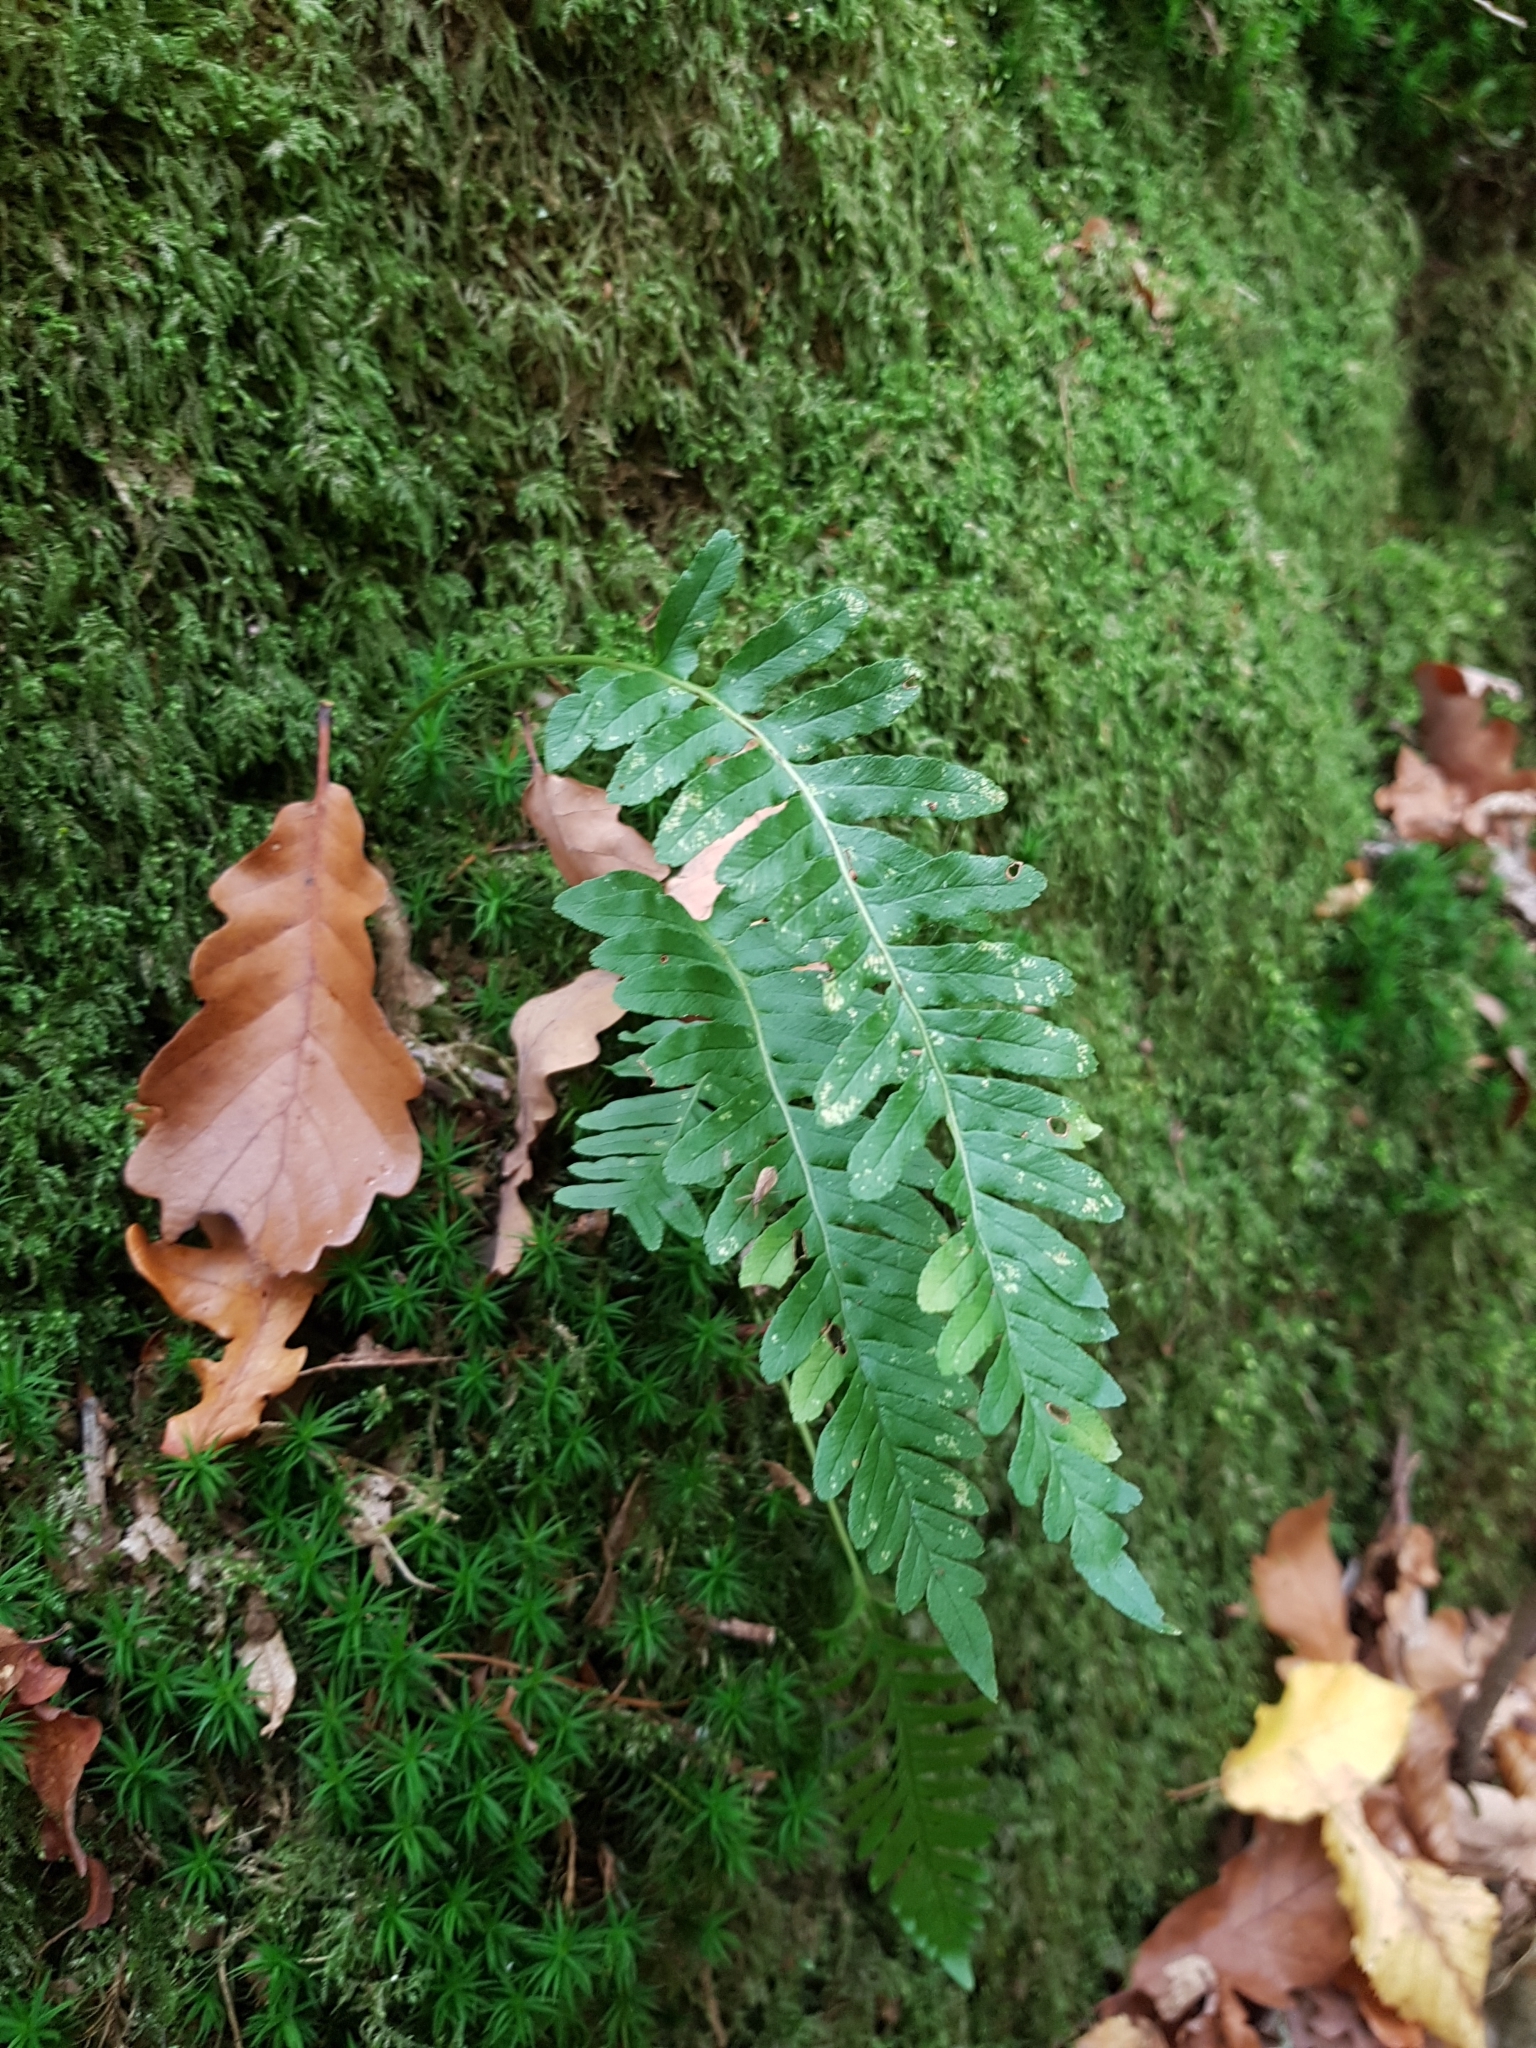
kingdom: Plantae
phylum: Tracheophyta
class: Polypodiopsida
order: Polypodiales
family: Polypodiaceae
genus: Polypodium
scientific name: Polypodium vulgare
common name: Common polypody
